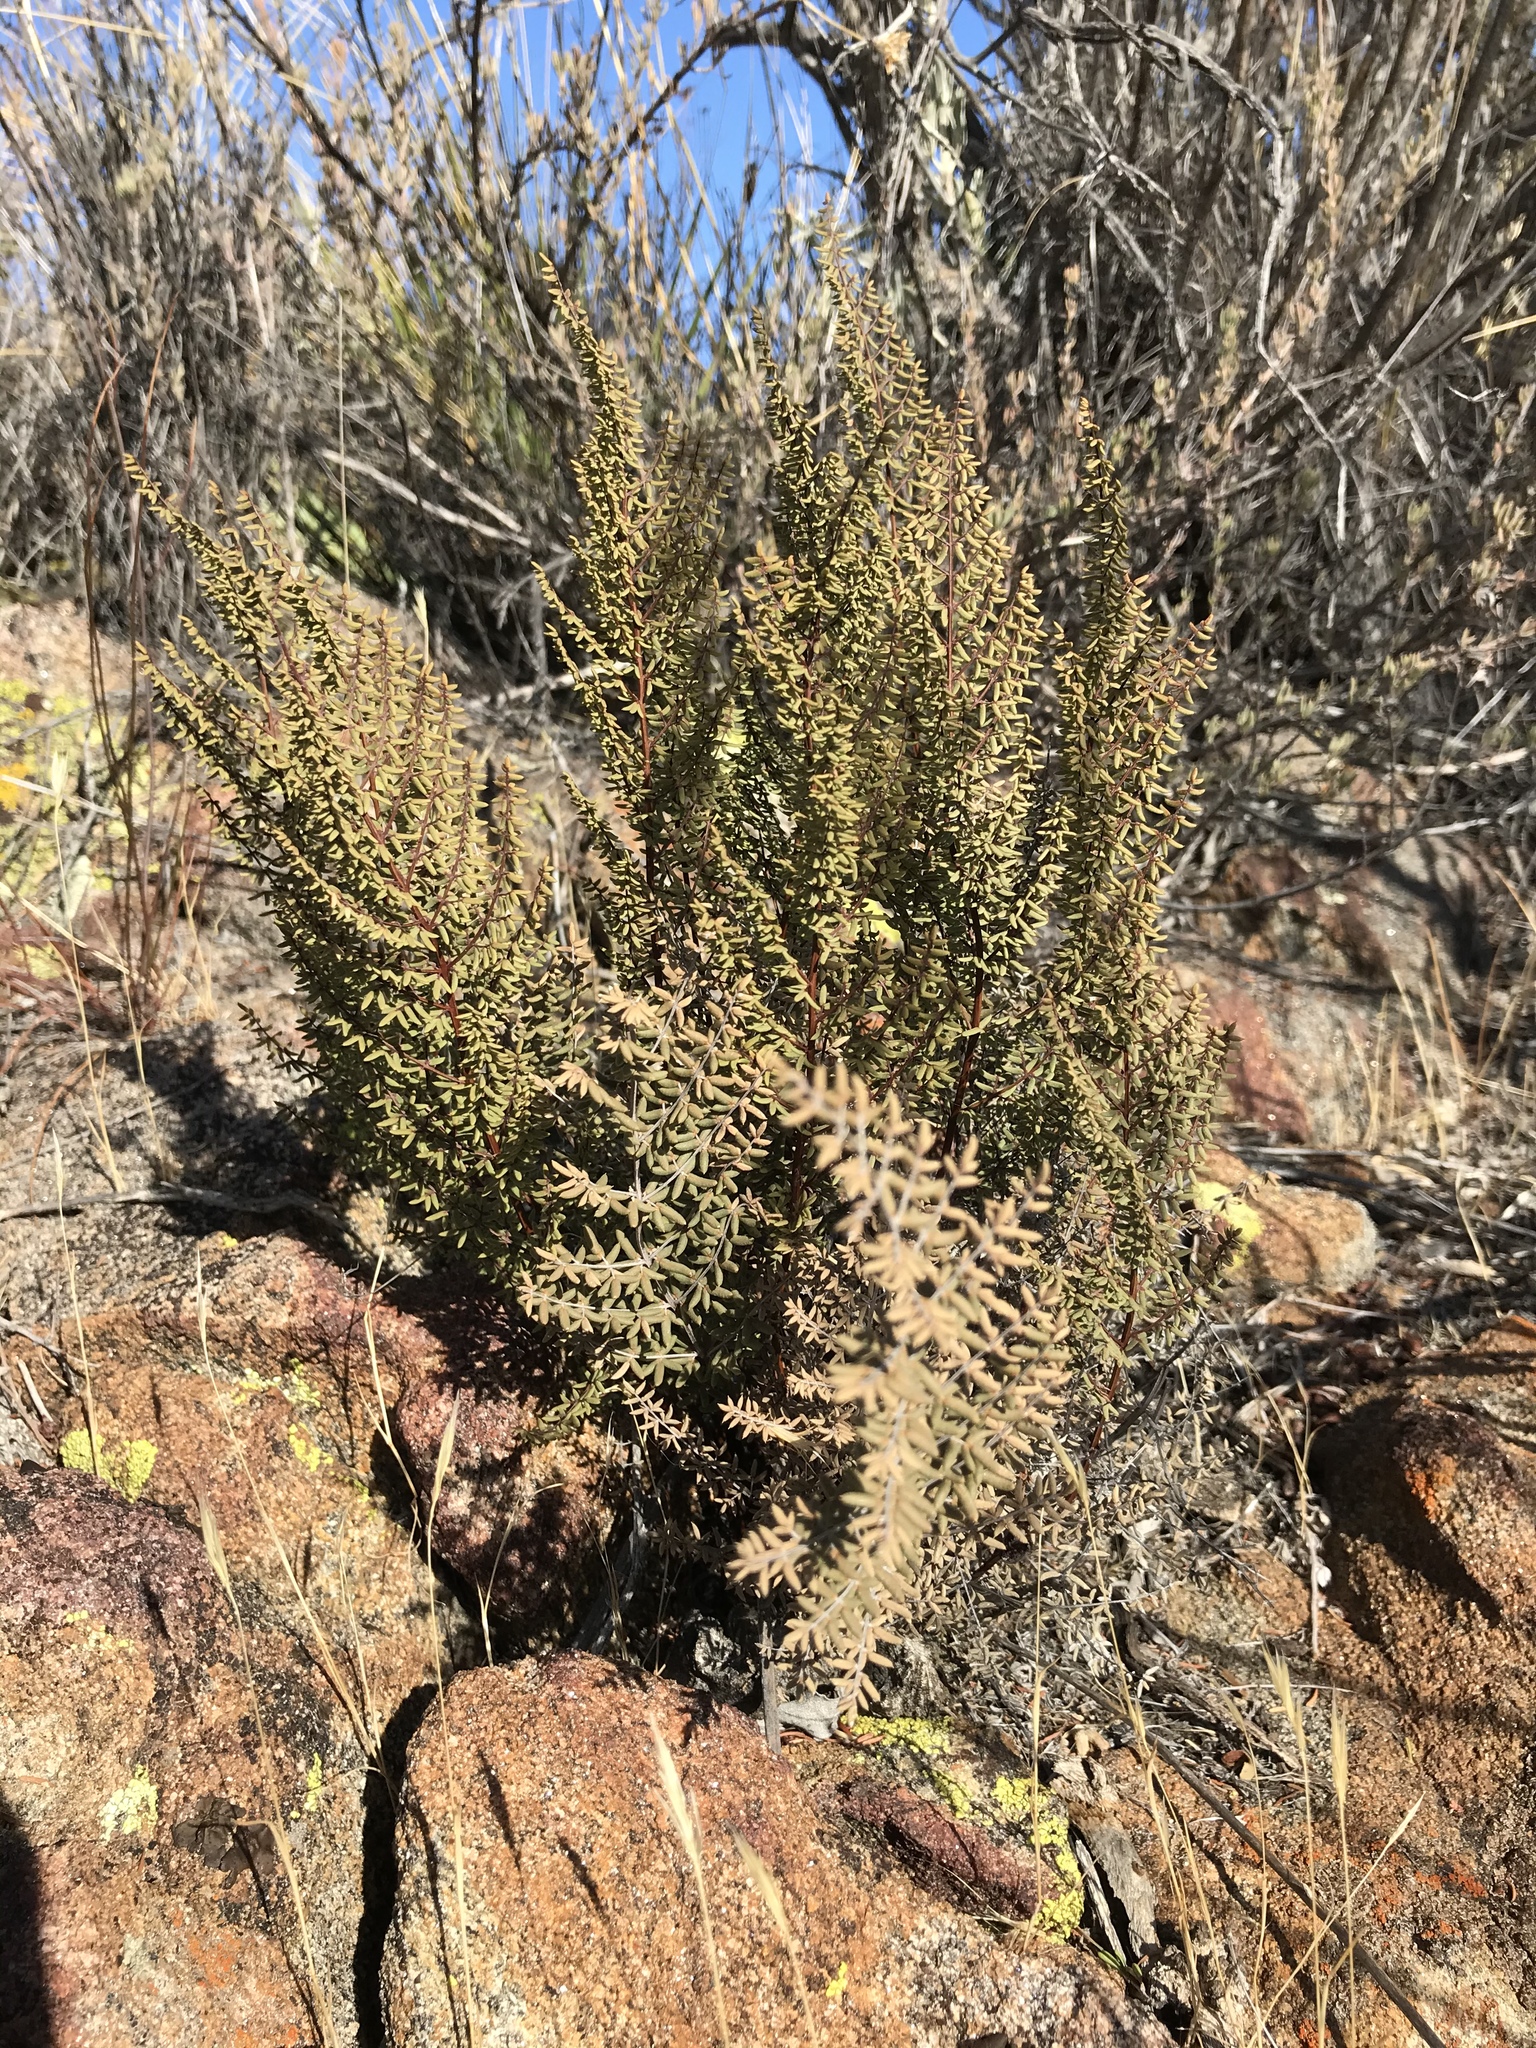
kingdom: Plantae
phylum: Tracheophyta
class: Polypodiopsida
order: Polypodiales
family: Pteridaceae
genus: Pellaea
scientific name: Pellaea mucronata
